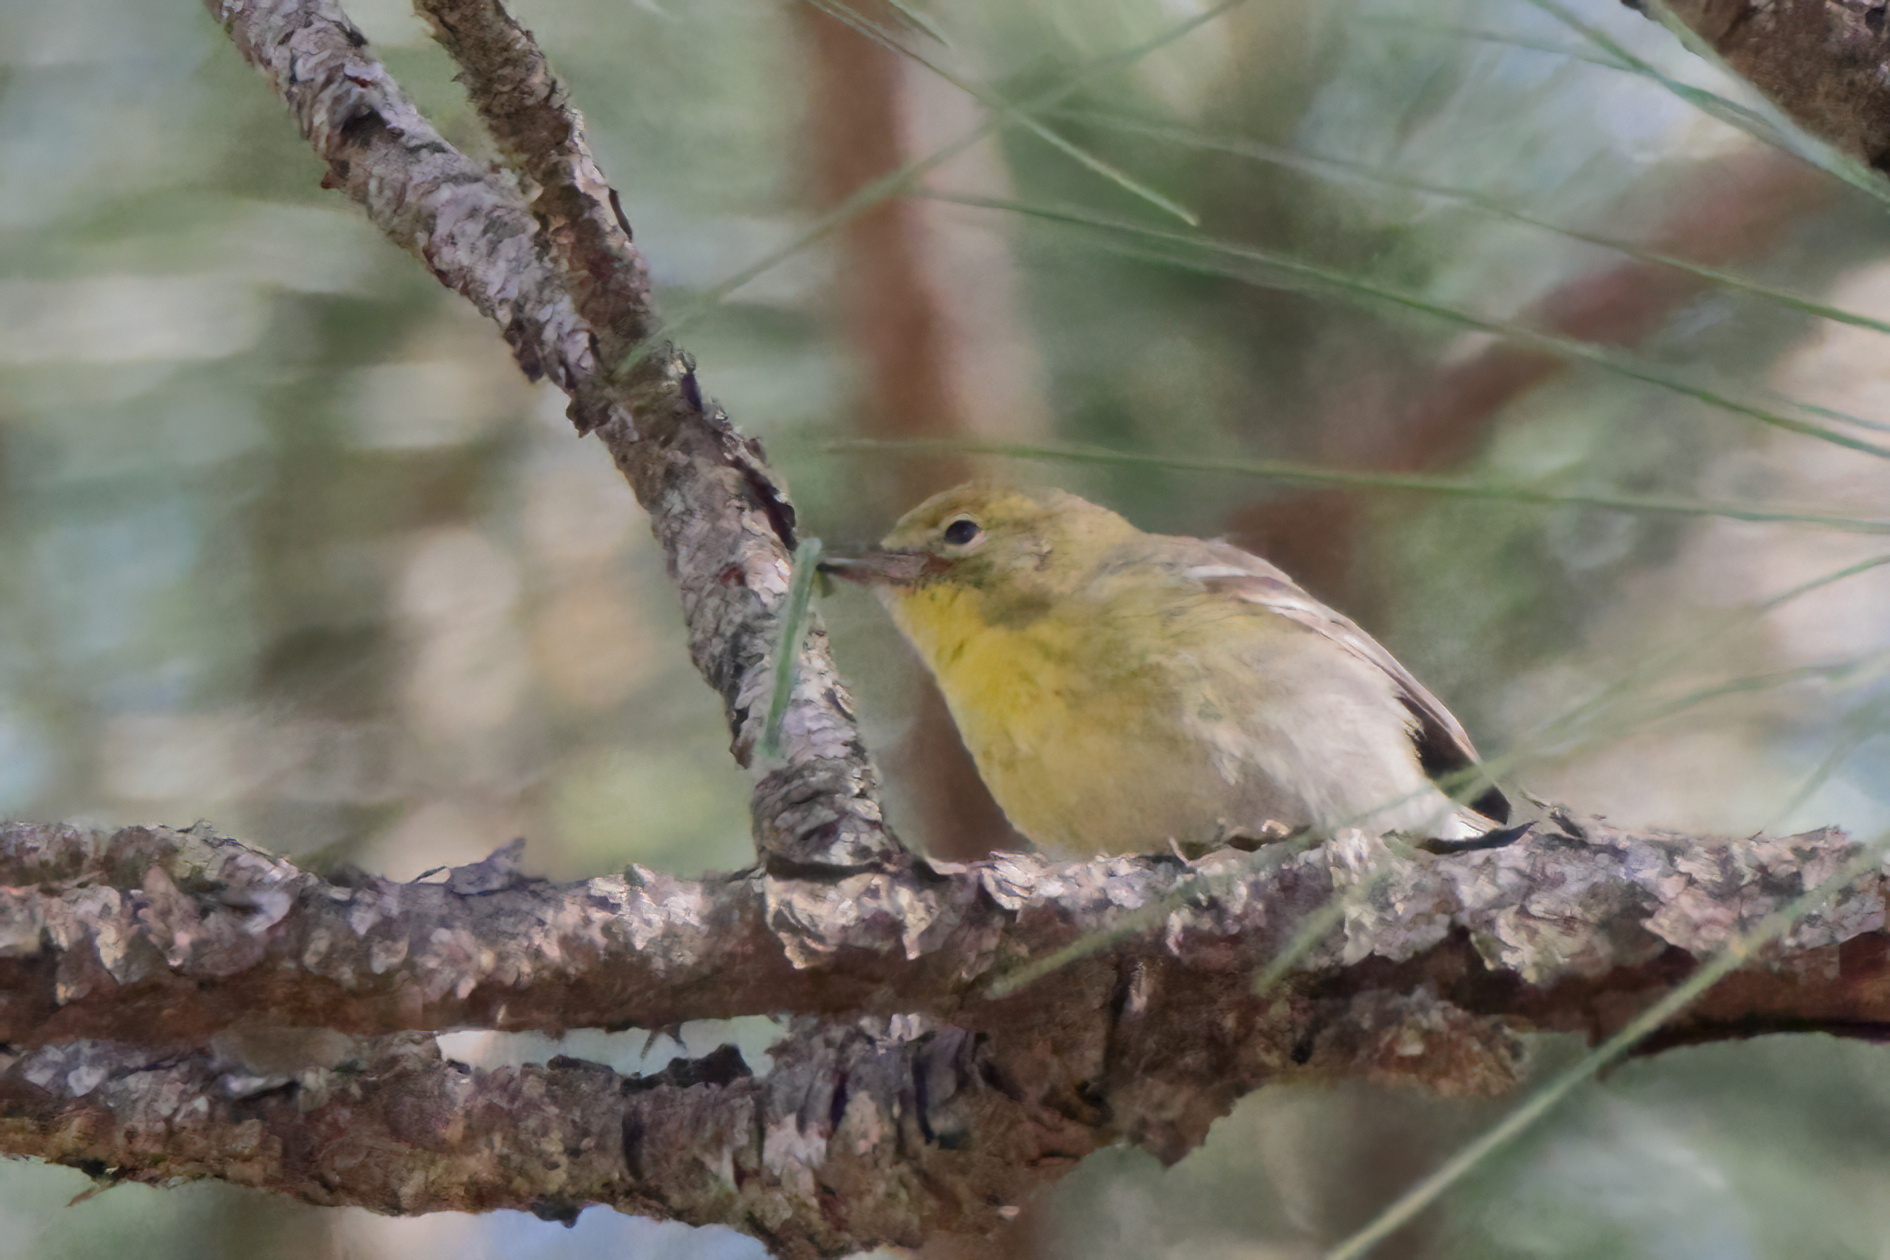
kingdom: Animalia
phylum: Chordata
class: Aves
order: Passeriformes
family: Parulidae
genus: Setophaga
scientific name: Setophaga pinus
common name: Pine warbler
